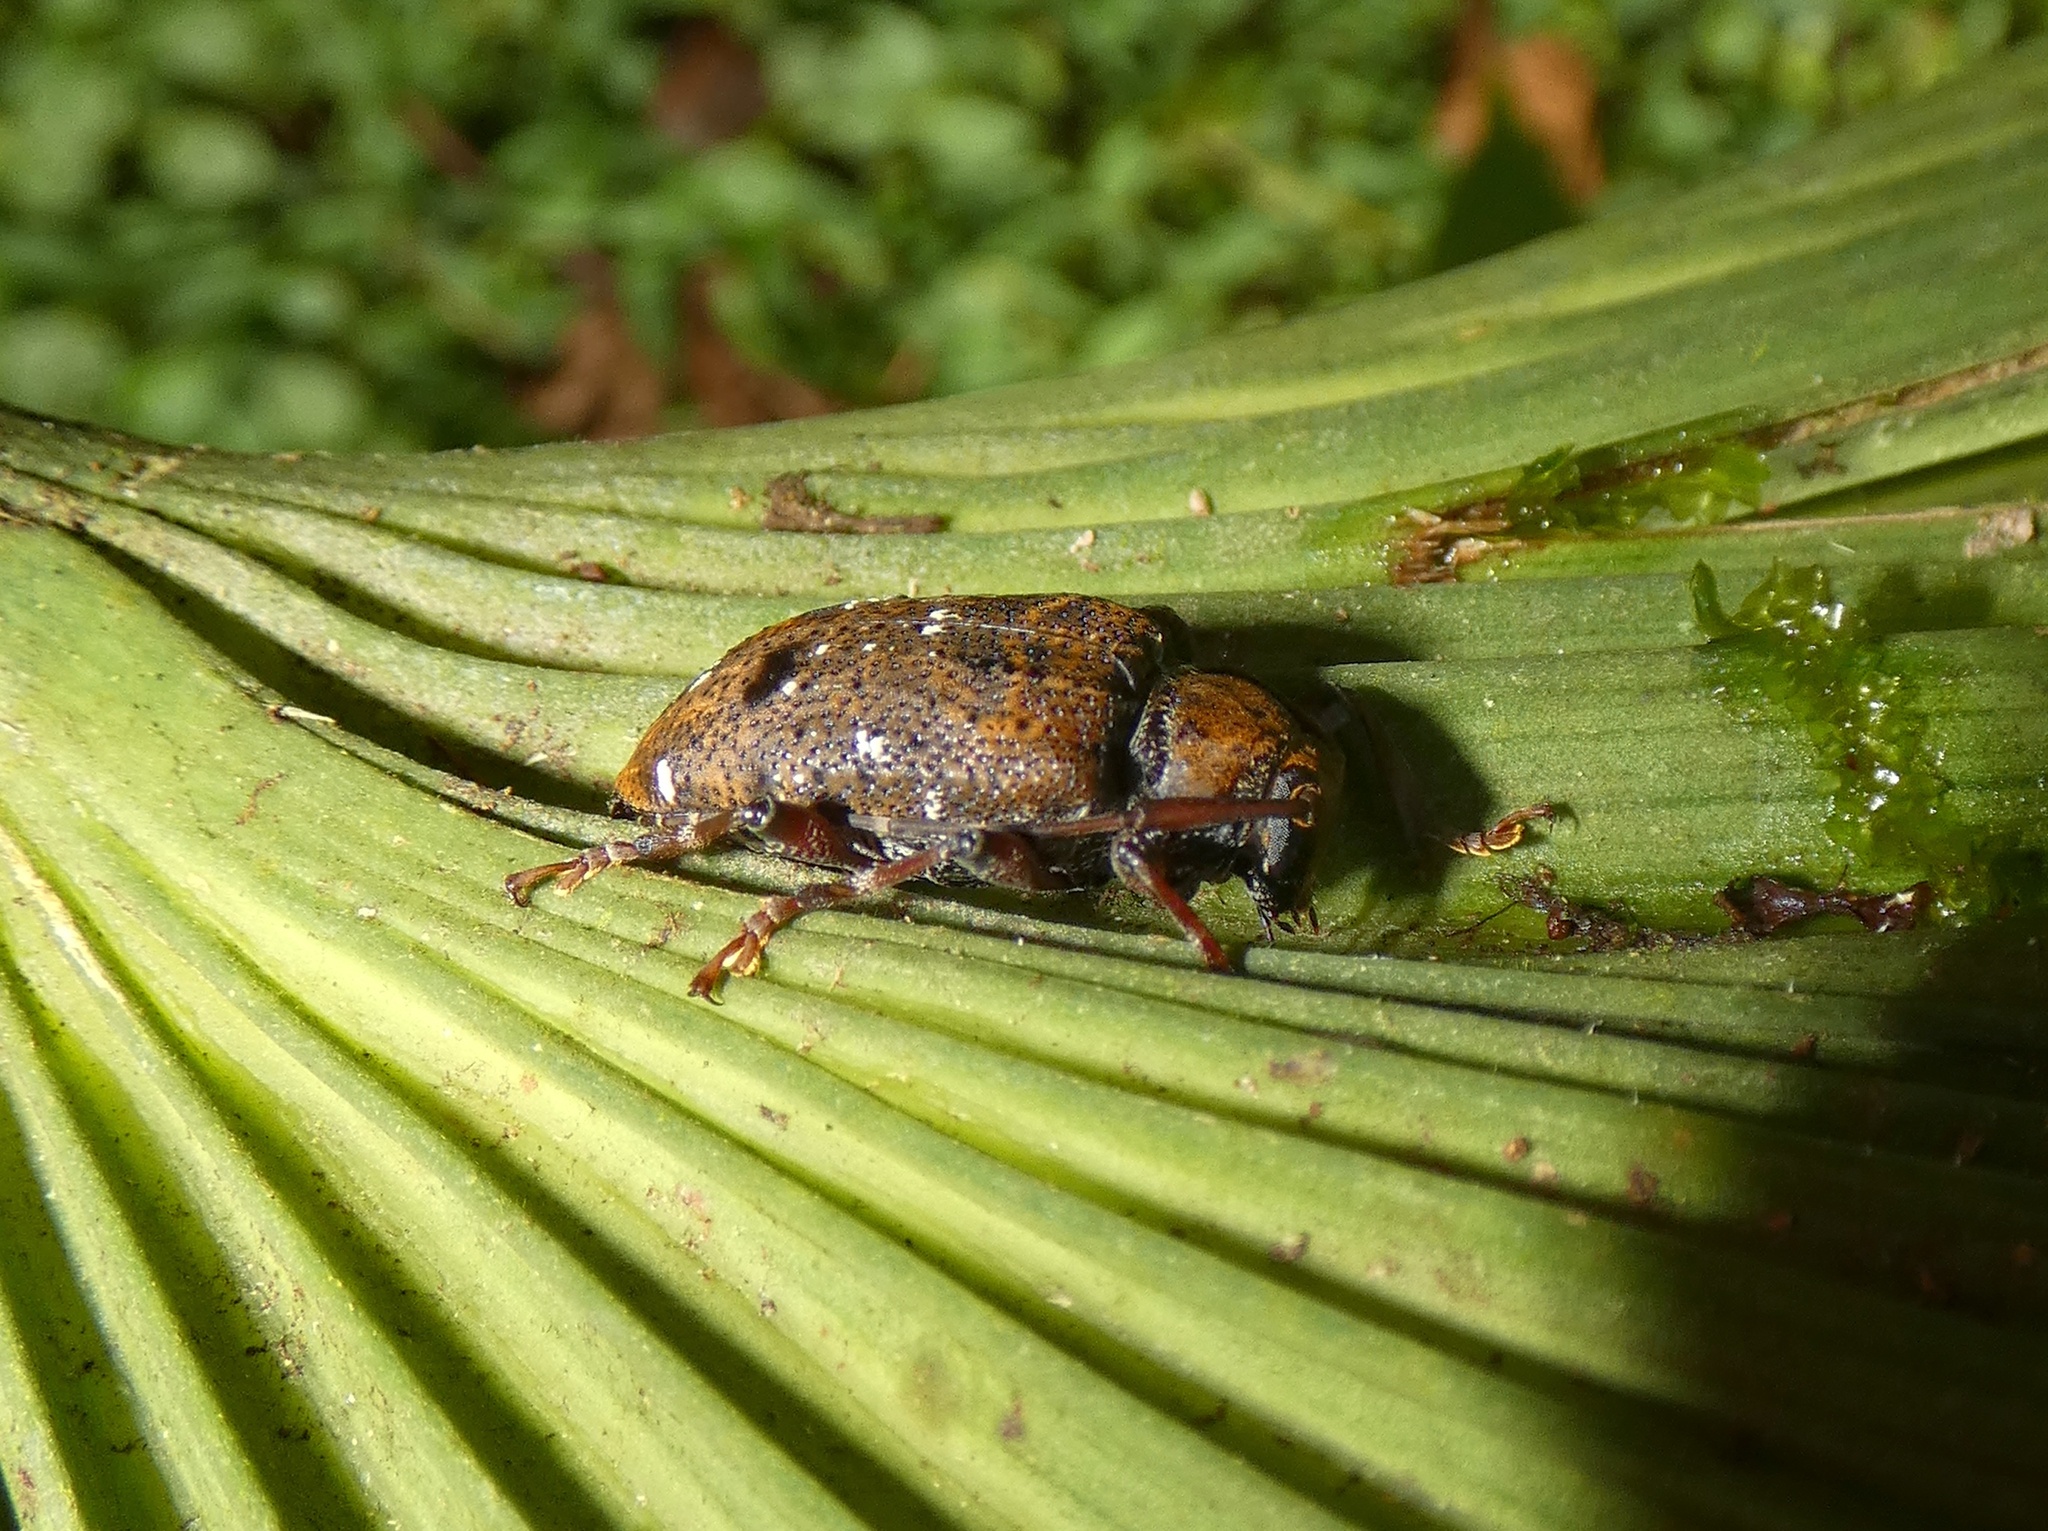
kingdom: Animalia
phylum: Arthropoda
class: Insecta
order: Coleoptera
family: Cerambycidae
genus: Trypanidius
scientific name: Trypanidius rubripes
